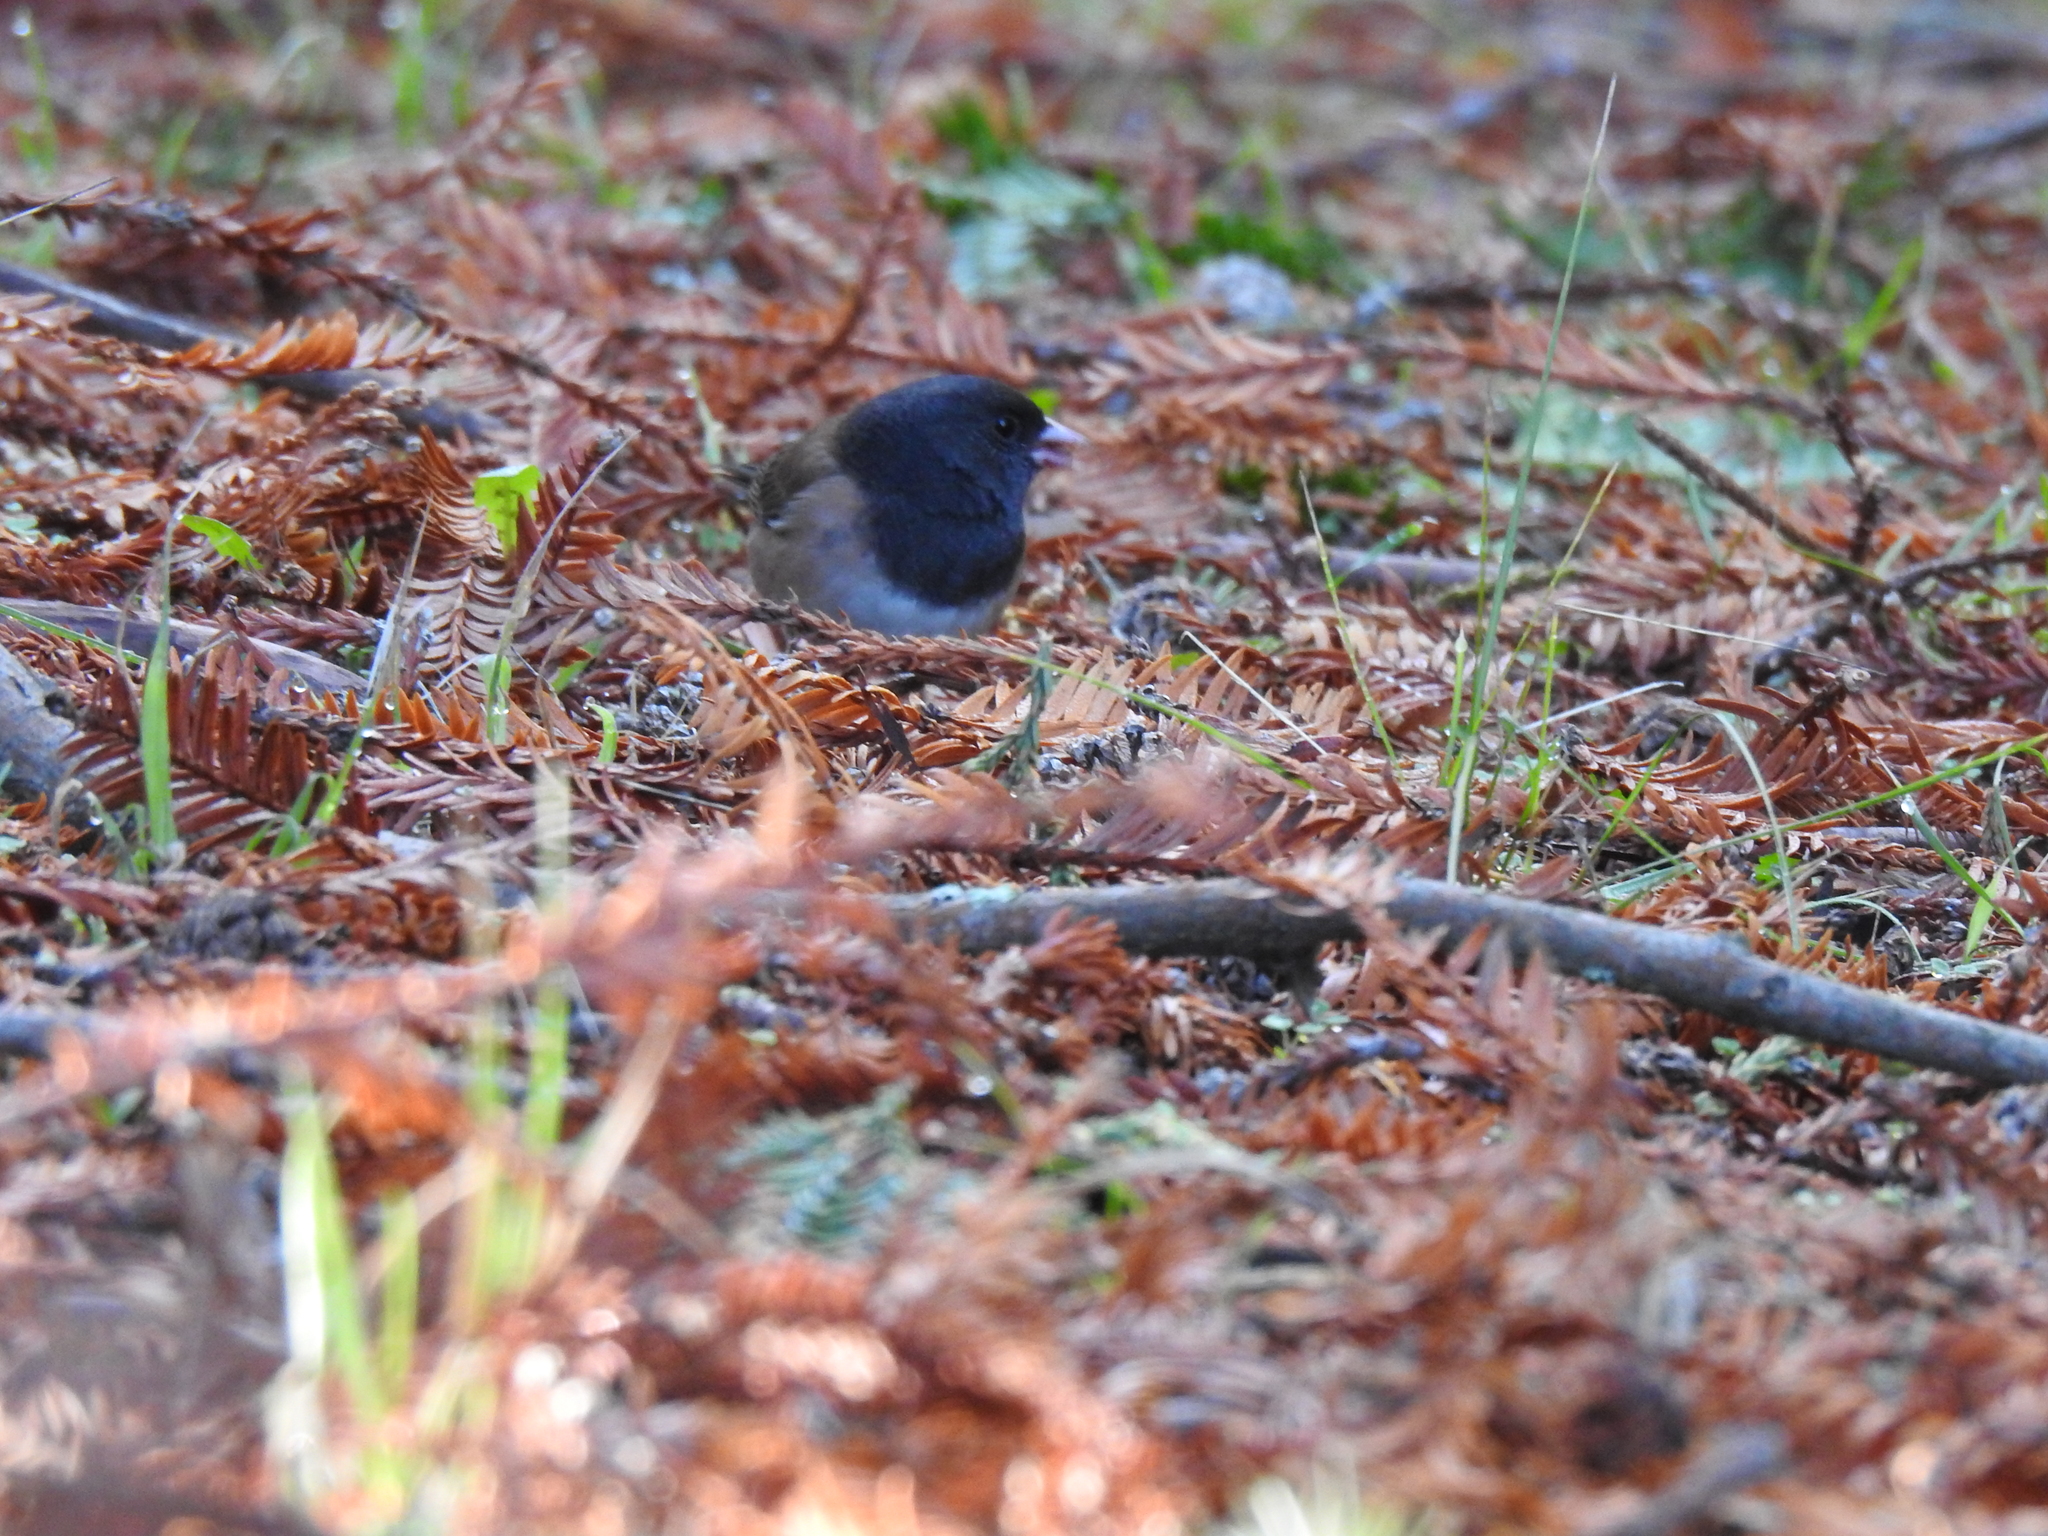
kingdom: Animalia
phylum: Chordata
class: Aves
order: Passeriformes
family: Passerellidae
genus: Junco
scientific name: Junco hyemalis
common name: Dark-eyed junco
